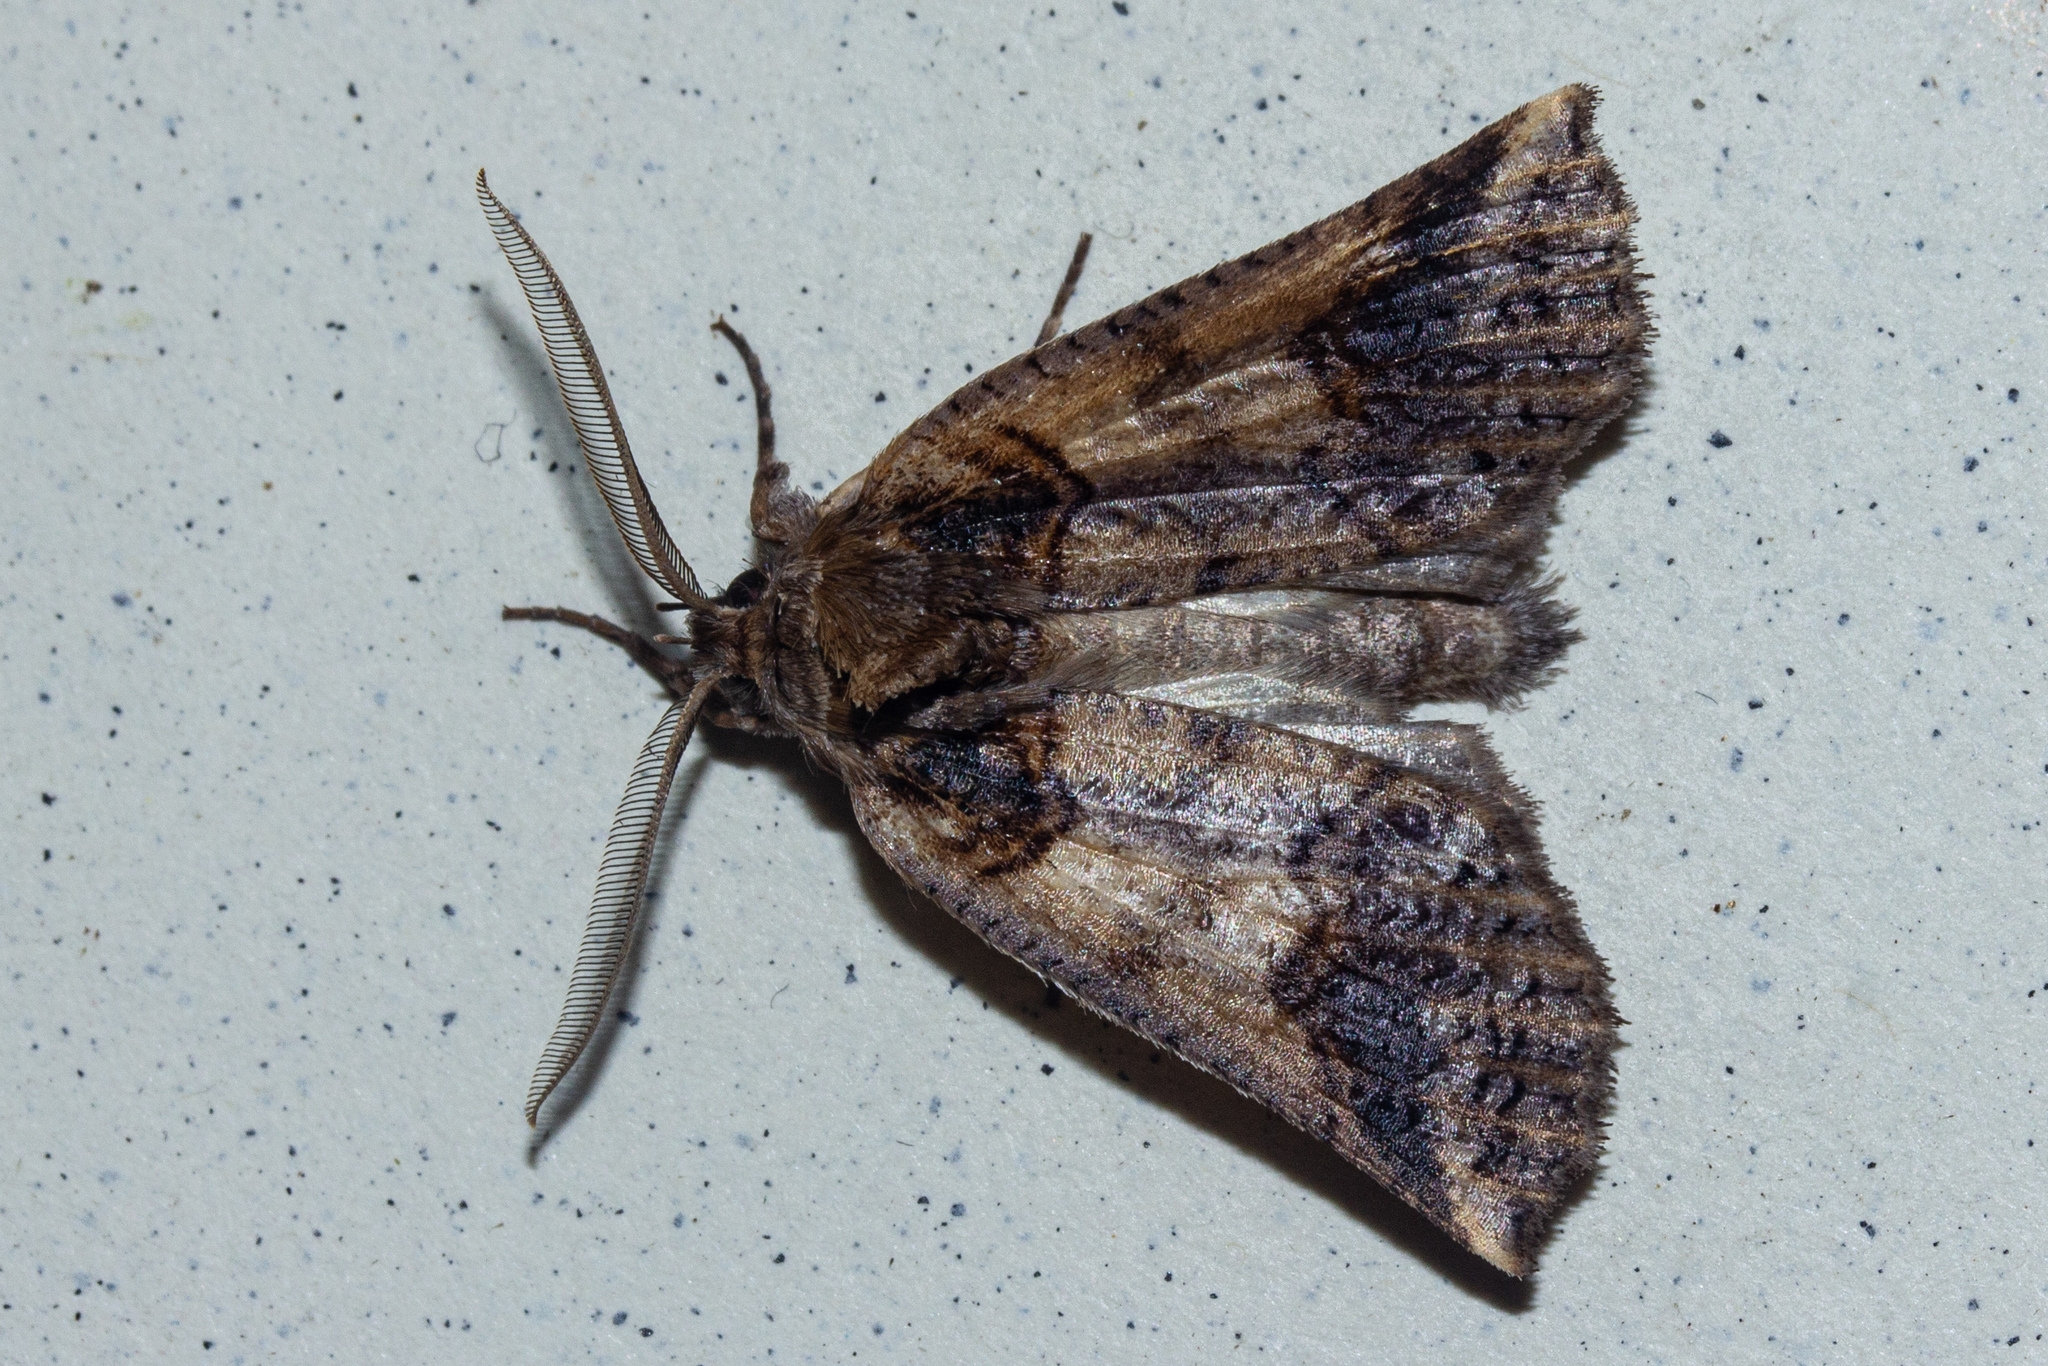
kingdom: Animalia
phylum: Arthropoda
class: Insecta
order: Lepidoptera
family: Geometridae
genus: Declana
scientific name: Declana
